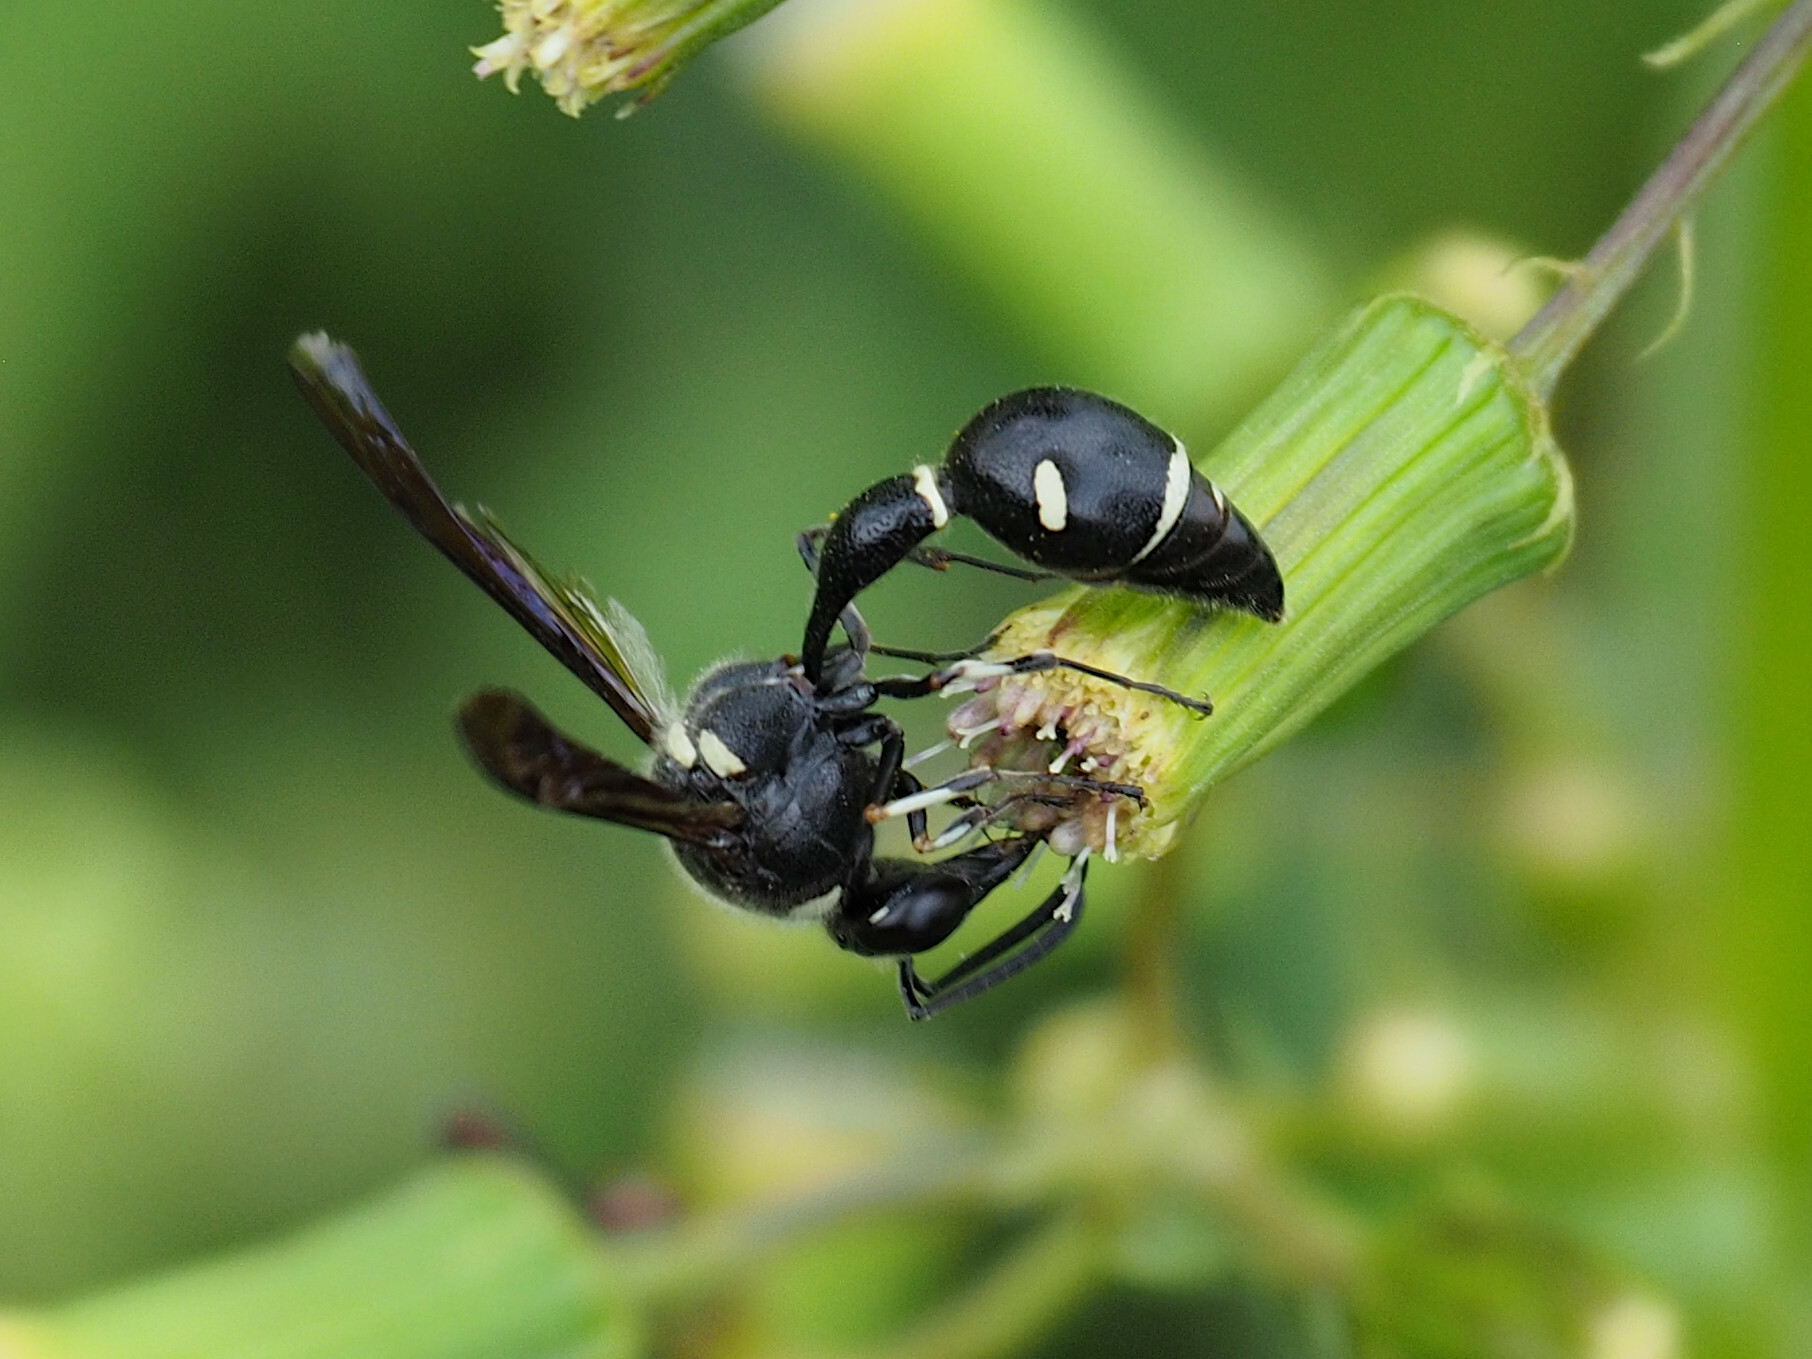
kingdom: Animalia
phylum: Arthropoda
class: Insecta
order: Hymenoptera
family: Vespidae
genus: Eumenes
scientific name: Eumenes fraternus
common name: Fraternal potter wasp
